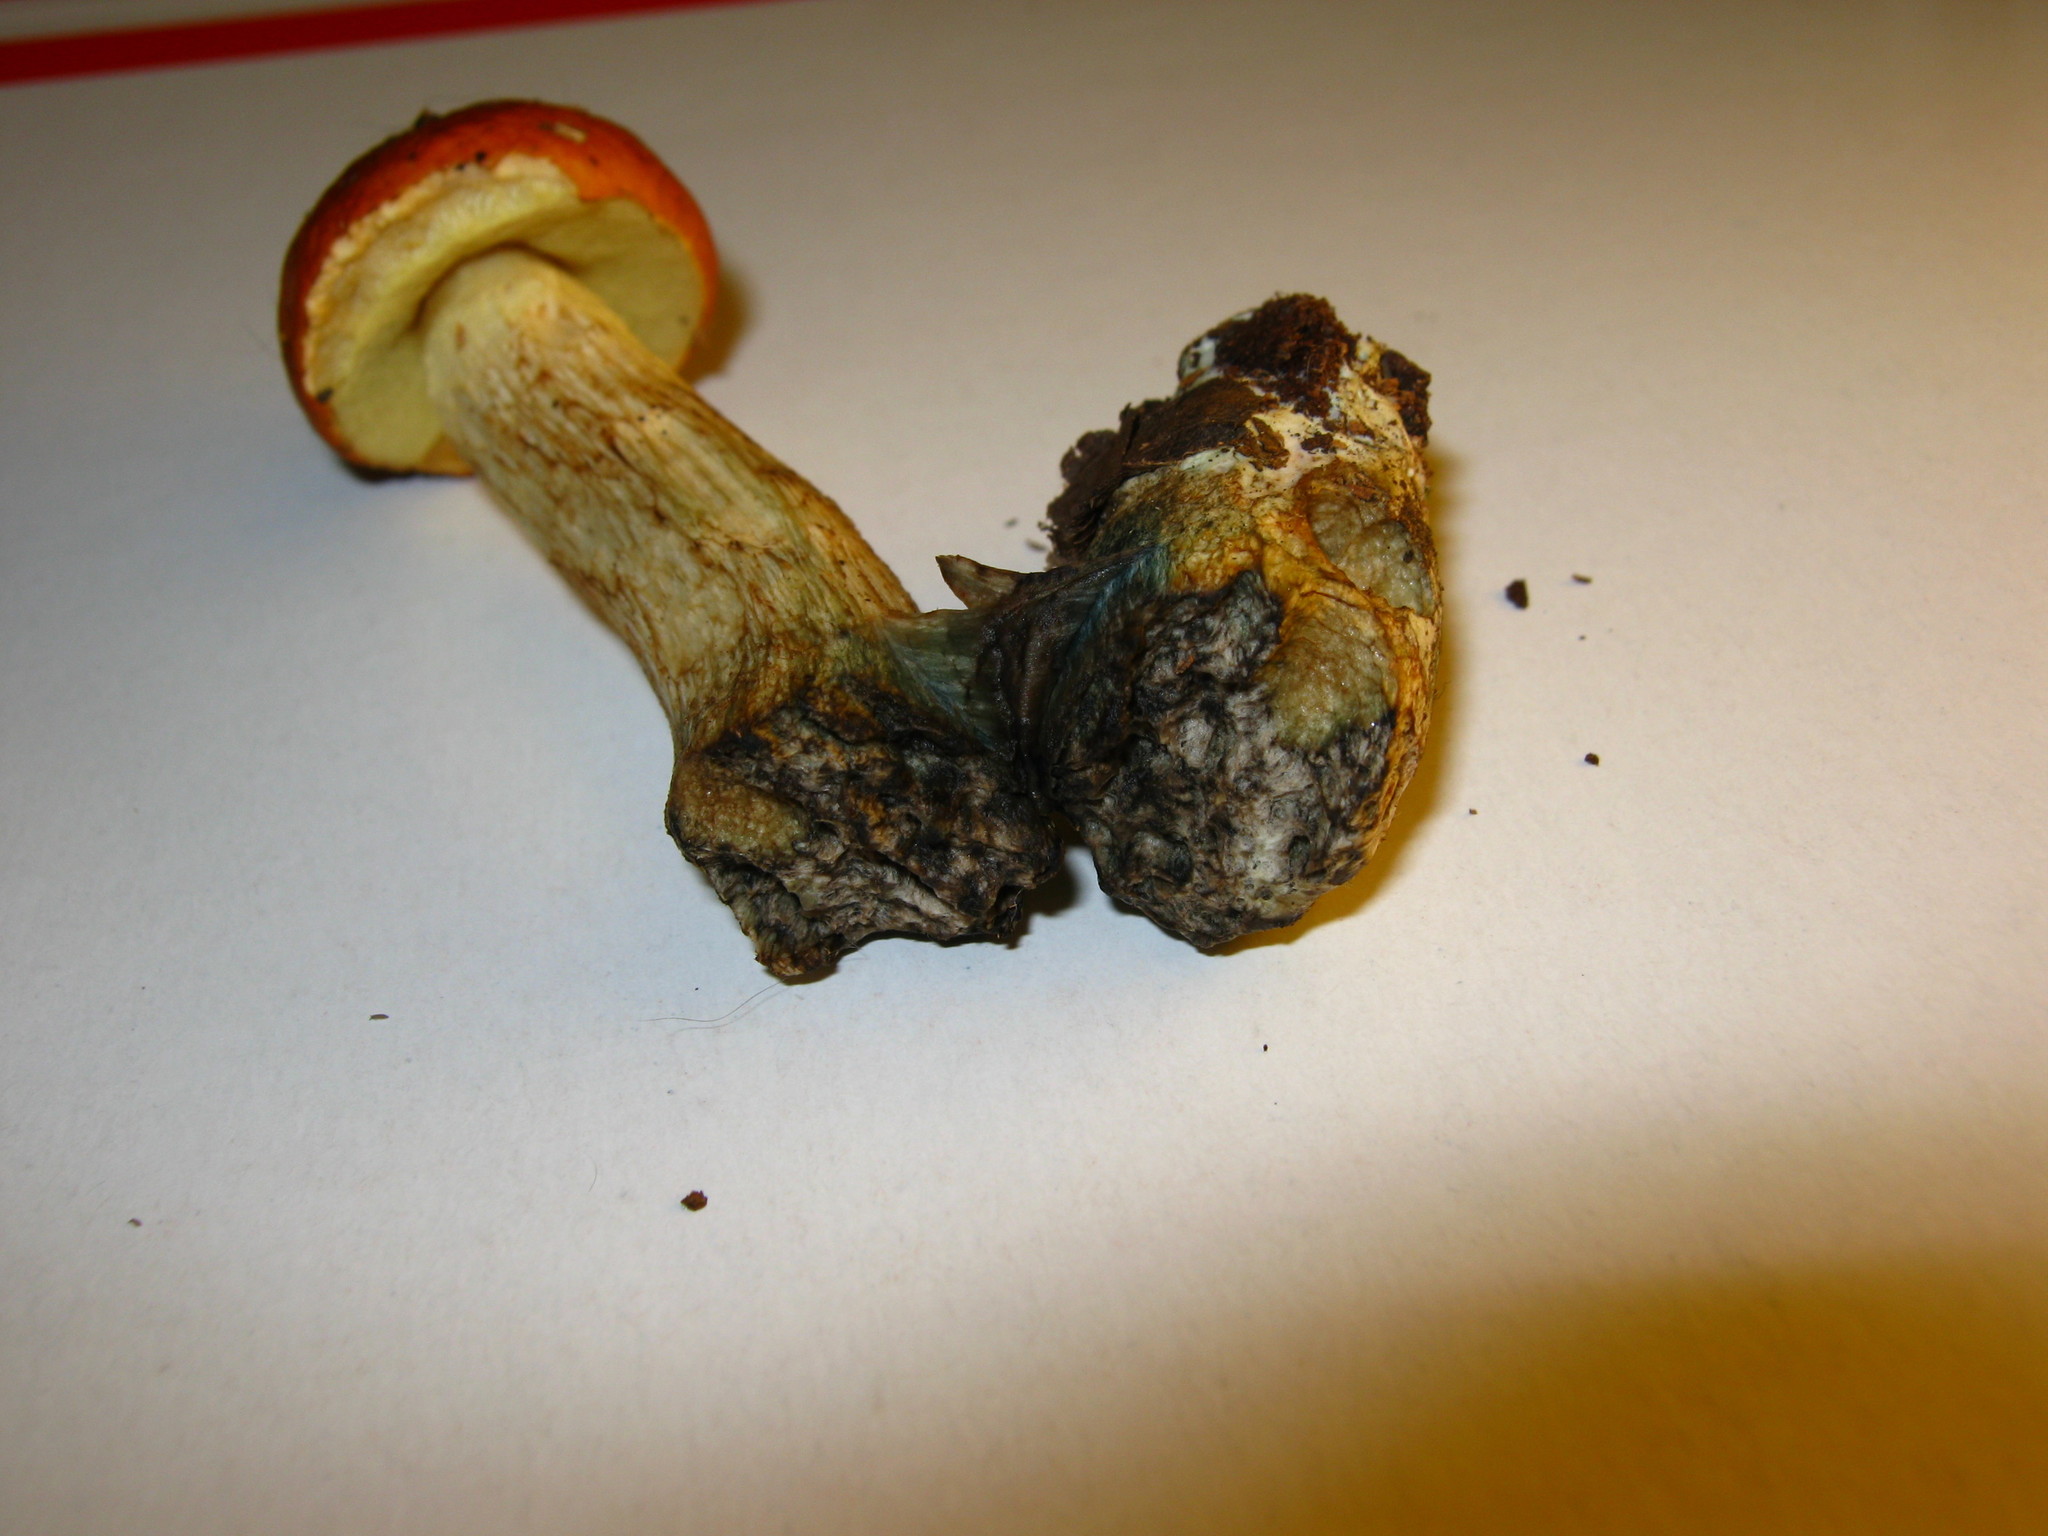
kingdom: Fungi
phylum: Basidiomycota
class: Agaricomycetes
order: Boletales
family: Boletaceae
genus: Leccinum
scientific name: Leccinum longicurvipes
